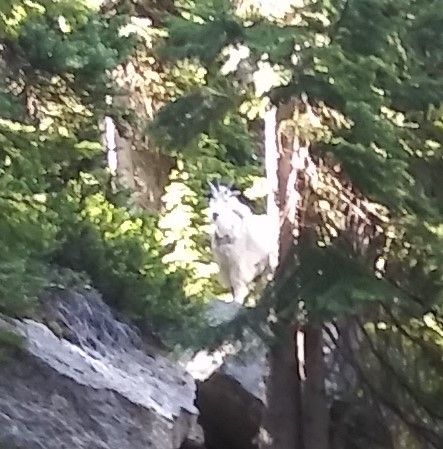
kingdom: Animalia
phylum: Chordata
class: Mammalia
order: Artiodactyla
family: Bovidae
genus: Oreamnos
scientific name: Oreamnos americanus
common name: Mountain goat
